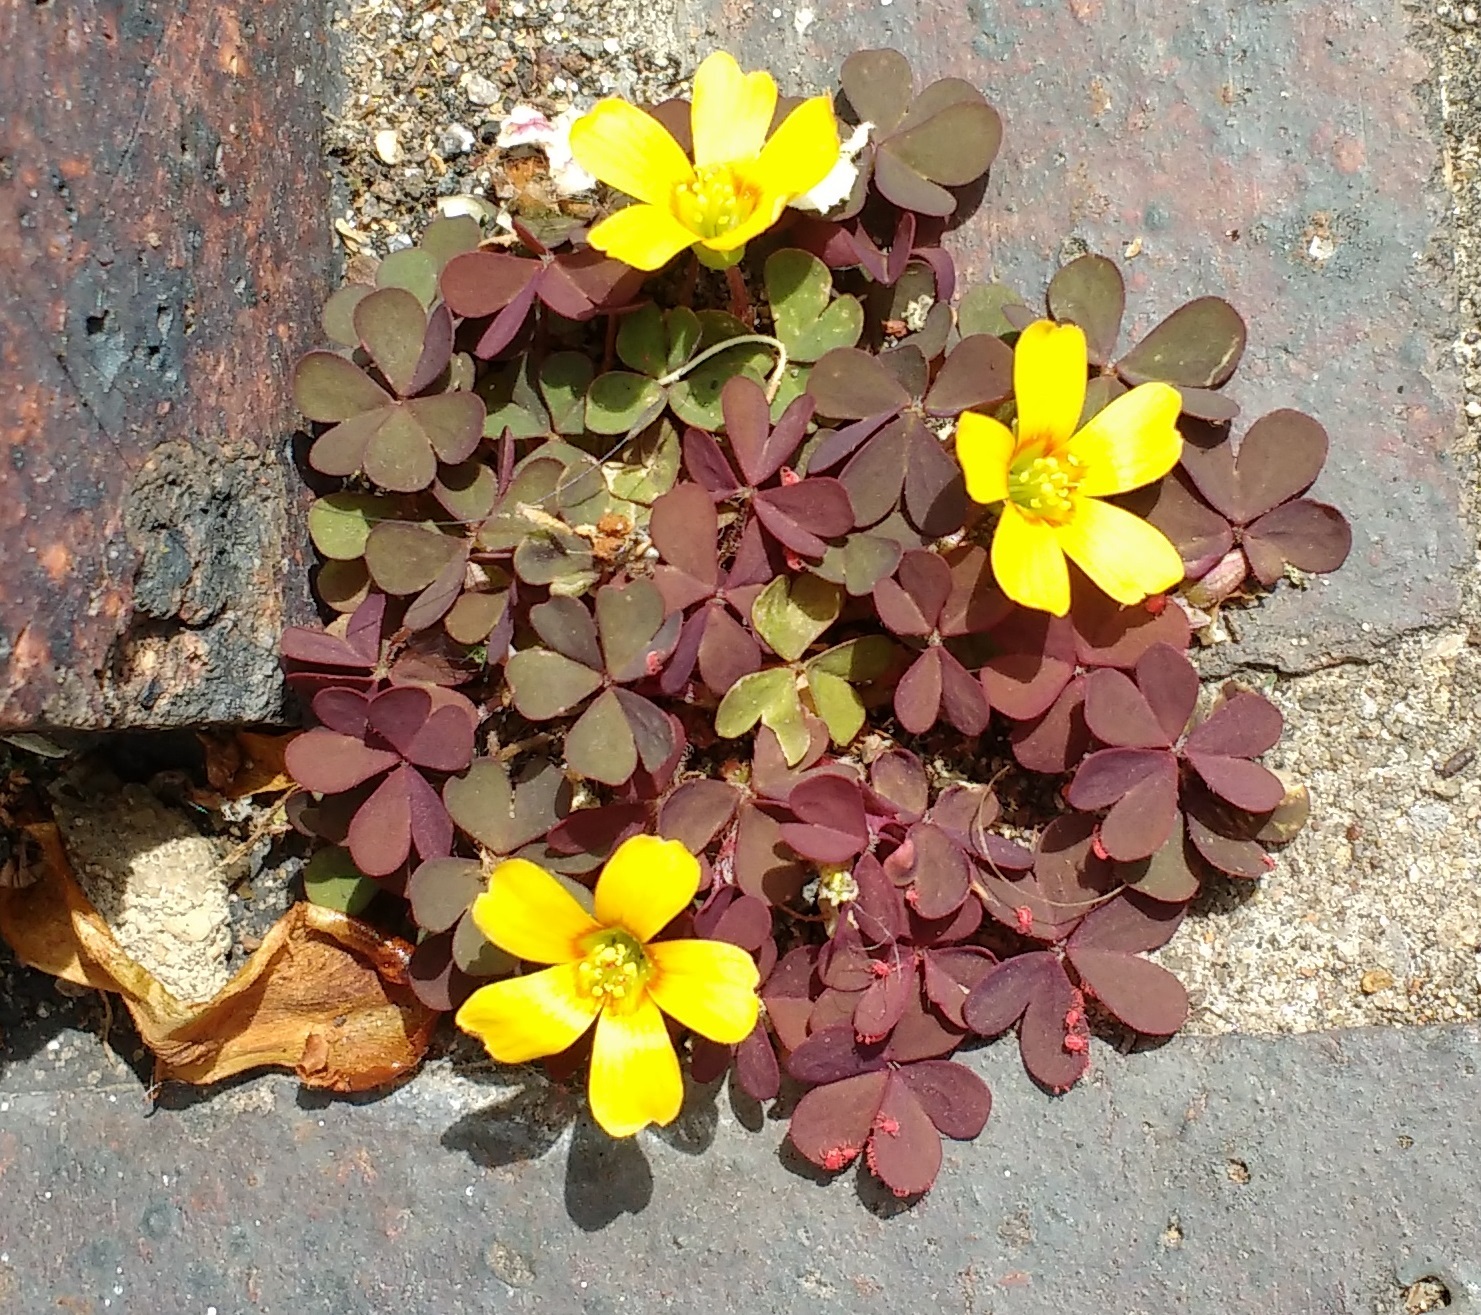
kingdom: Plantae
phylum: Tracheophyta
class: Magnoliopsida
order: Oxalidales
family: Oxalidaceae
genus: Oxalis
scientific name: Oxalis corniculata
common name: Procumbent yellow-sorrel
